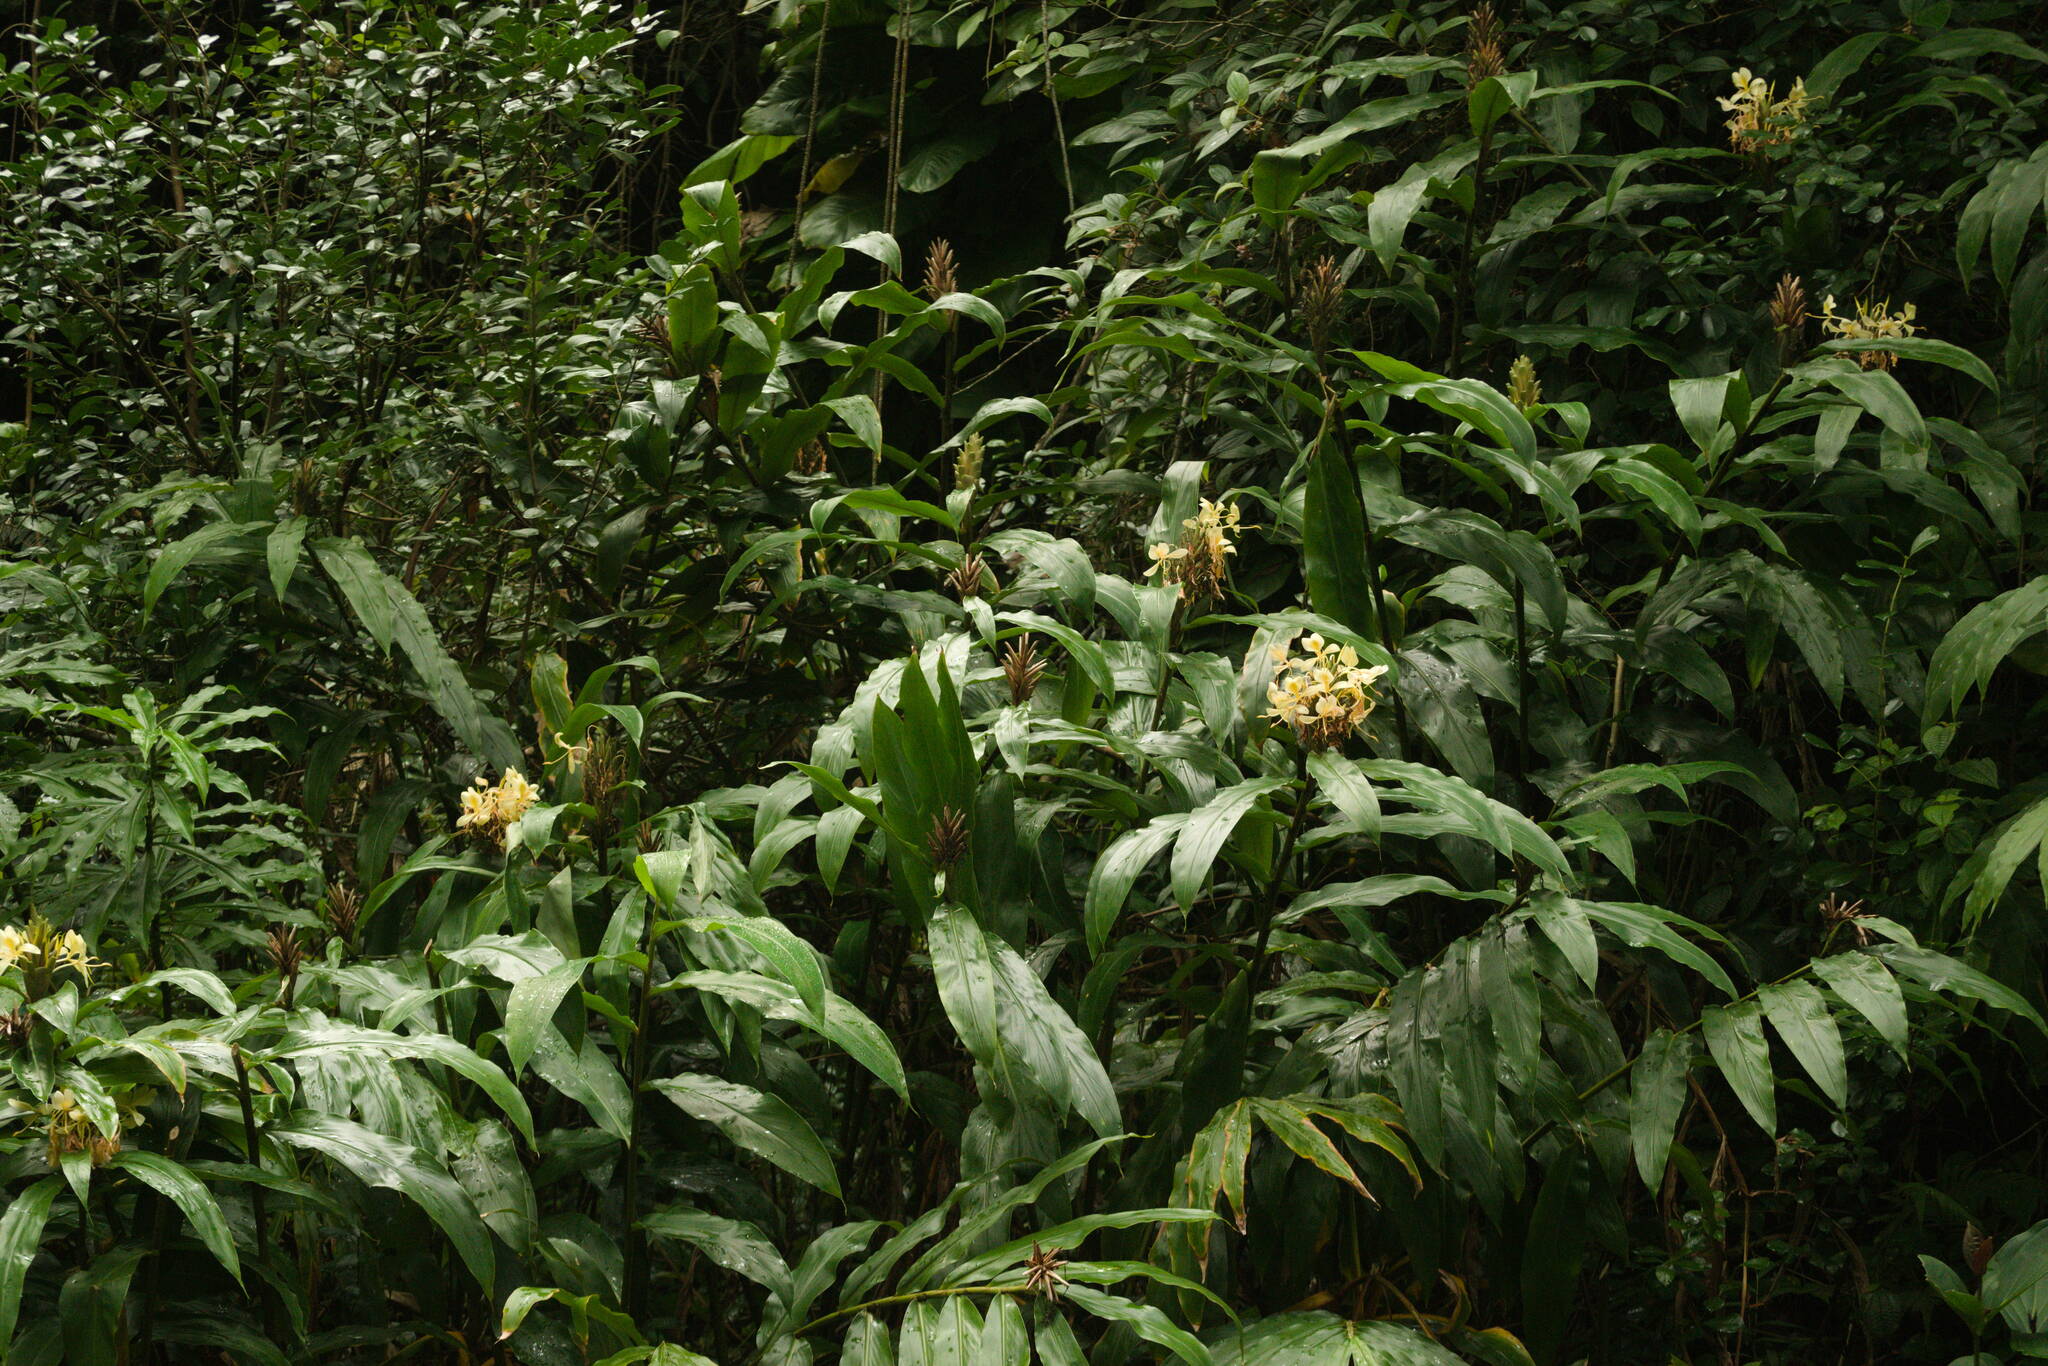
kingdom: Plantae
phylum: Tracheophyta
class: Liliopsida
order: Zingiberales
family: Zingiberaceae
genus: Hedychium
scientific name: Hedychium flavescens
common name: Yellow ginger
